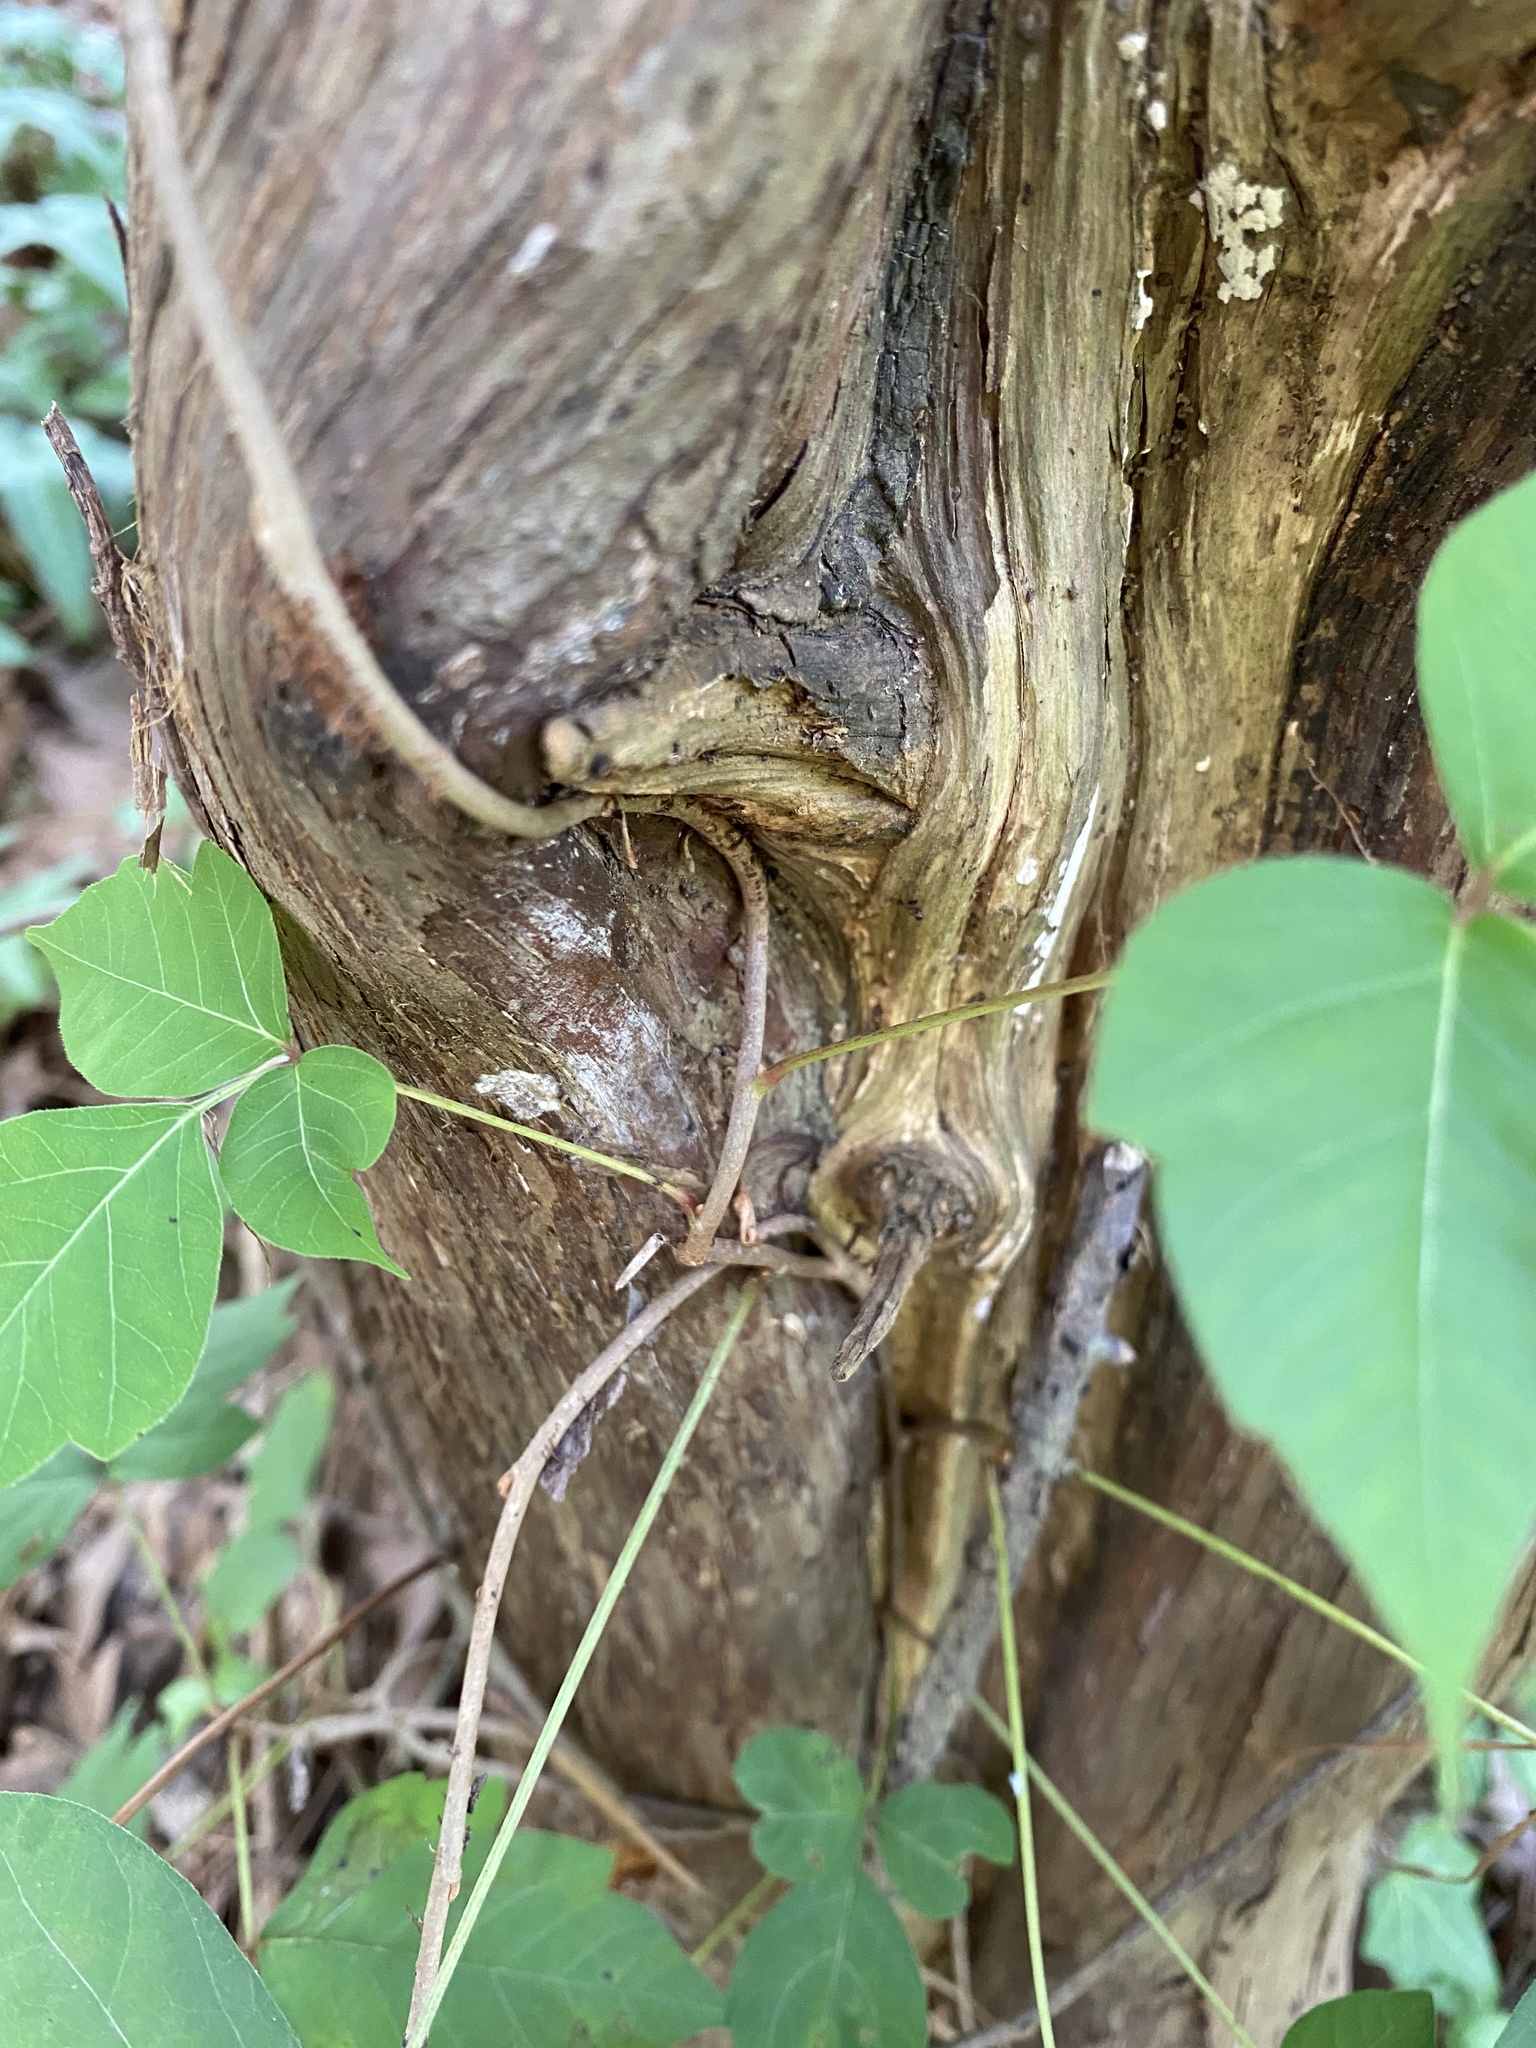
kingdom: Plantae
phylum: Tracheophyta
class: Magnoliopsida
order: Sapindales
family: Anacardiaceae
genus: Toxicodendron
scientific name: Toxicodendron radicans
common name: Poison ivy
